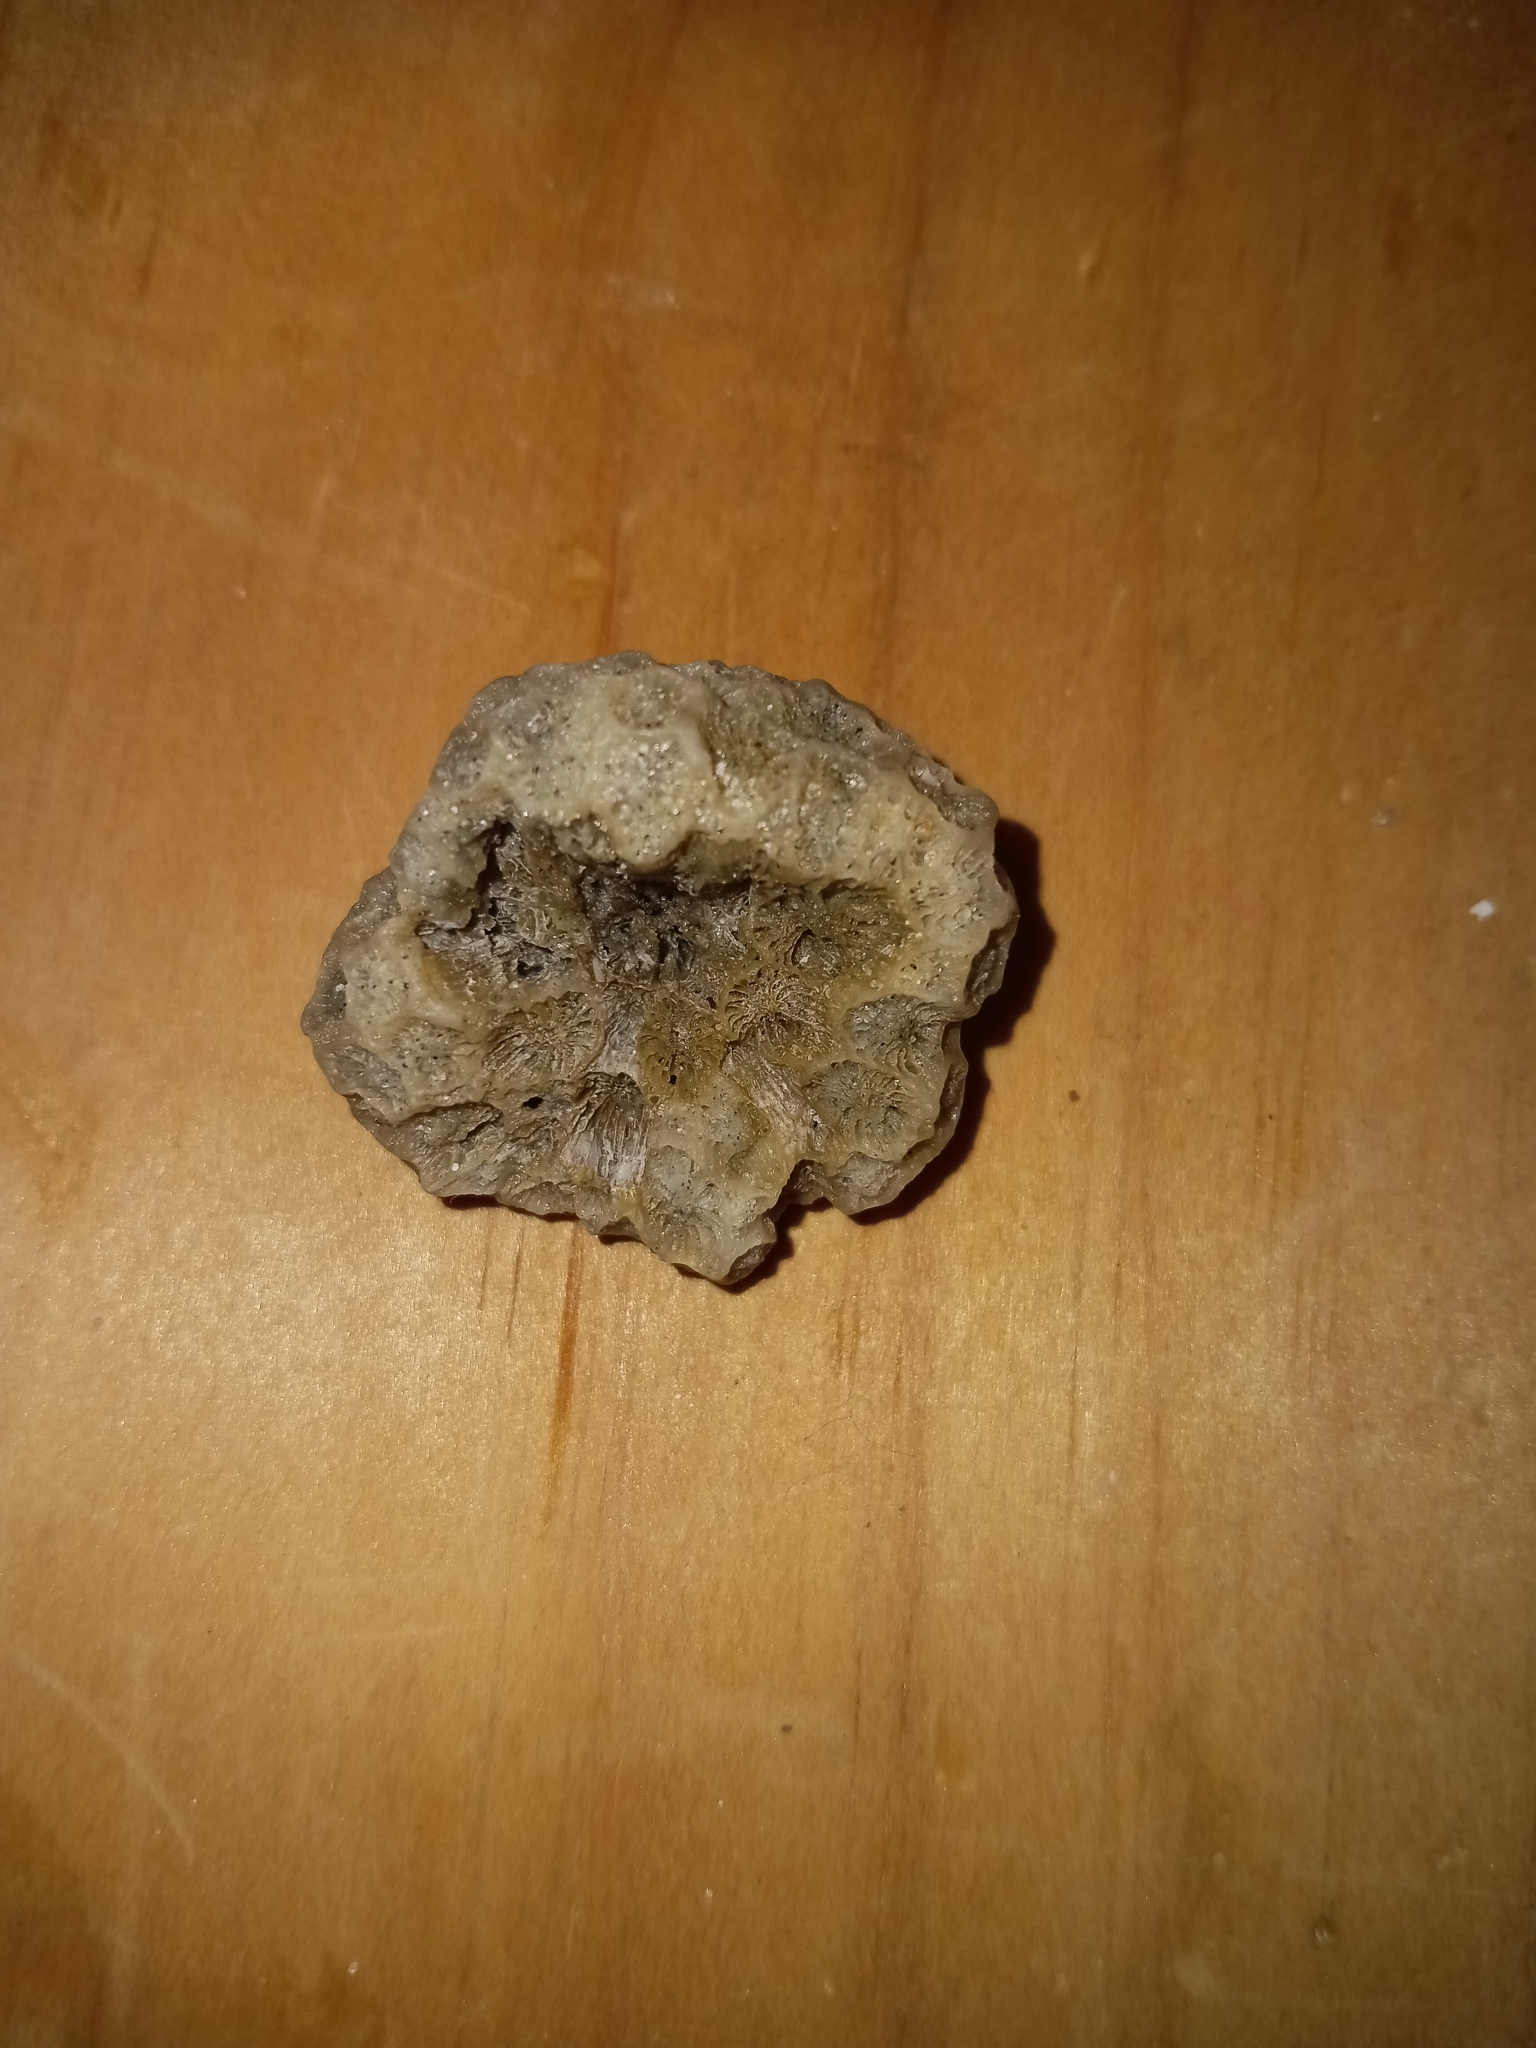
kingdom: Animalia
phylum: Cnidaria
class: Anthozoa
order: Scleractinia
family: Astrangiidae
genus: Astrangia
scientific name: Astrangia poculata
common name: Northern star coral
